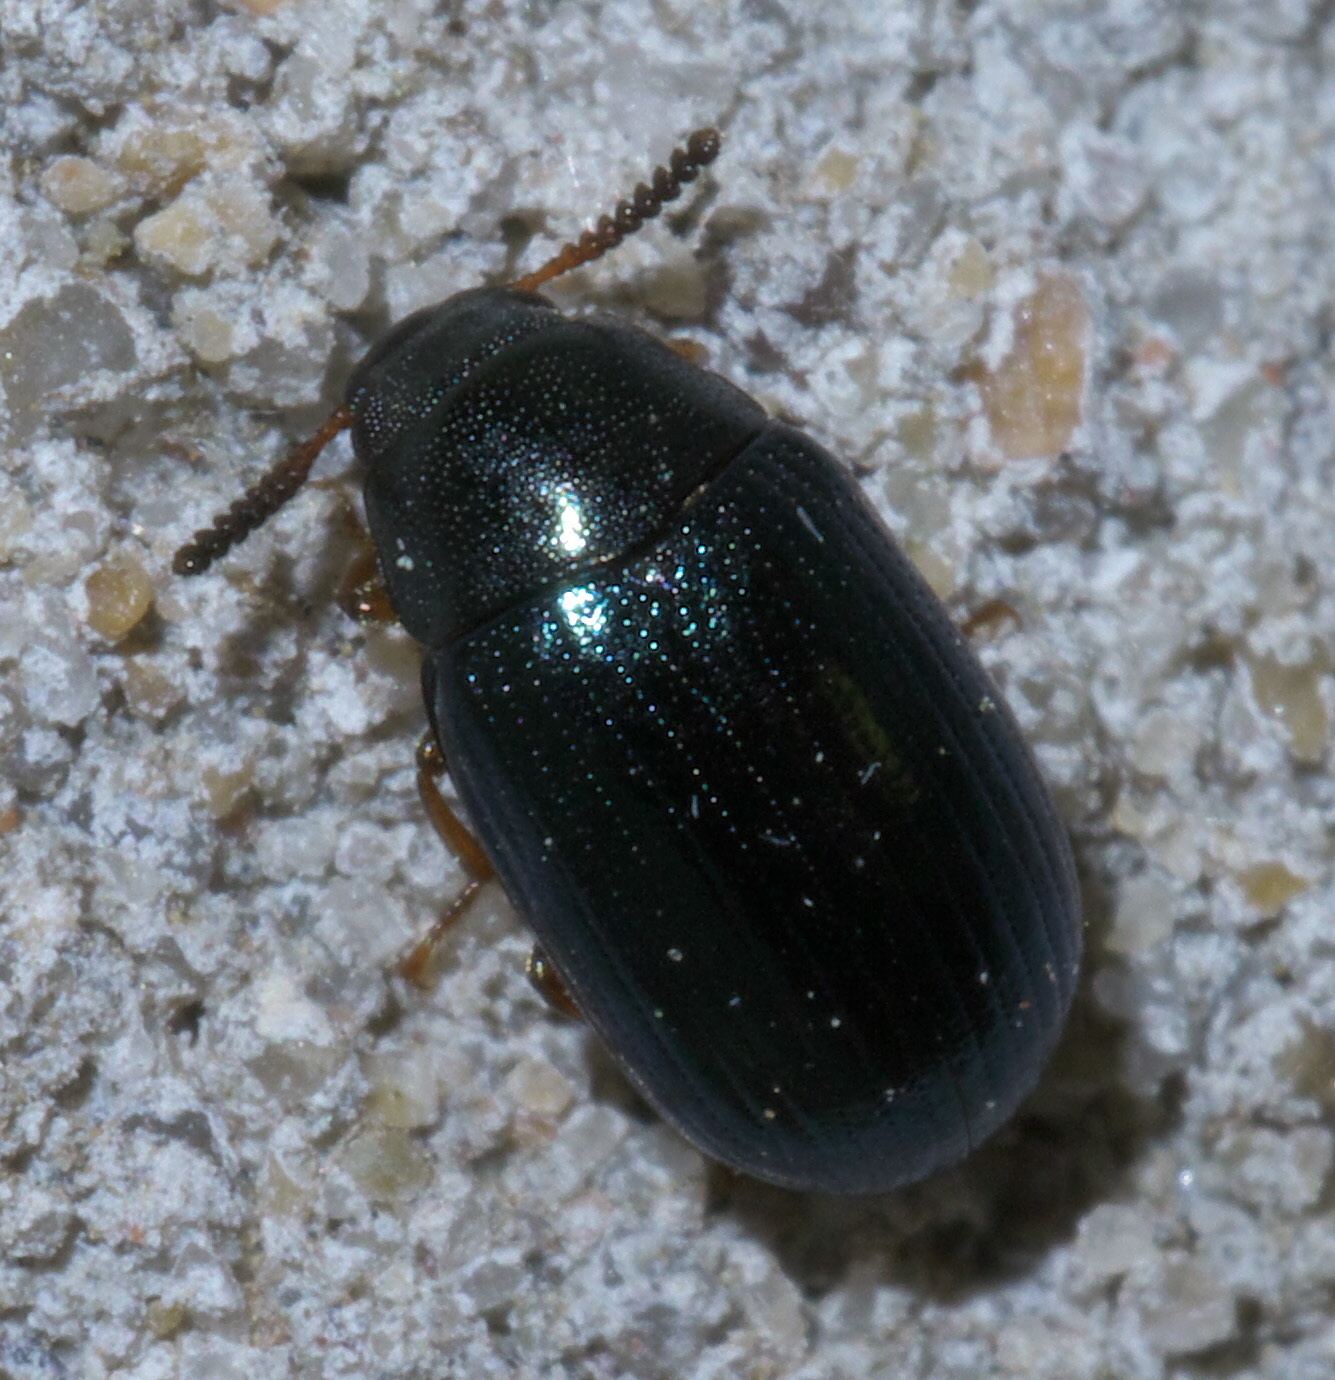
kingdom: Animalia
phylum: Arthropoda
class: Insecta
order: Coleoptera
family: Tenebrionidae
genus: Neomida
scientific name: Neomida bicornis
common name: Two-horned darkling beetle
